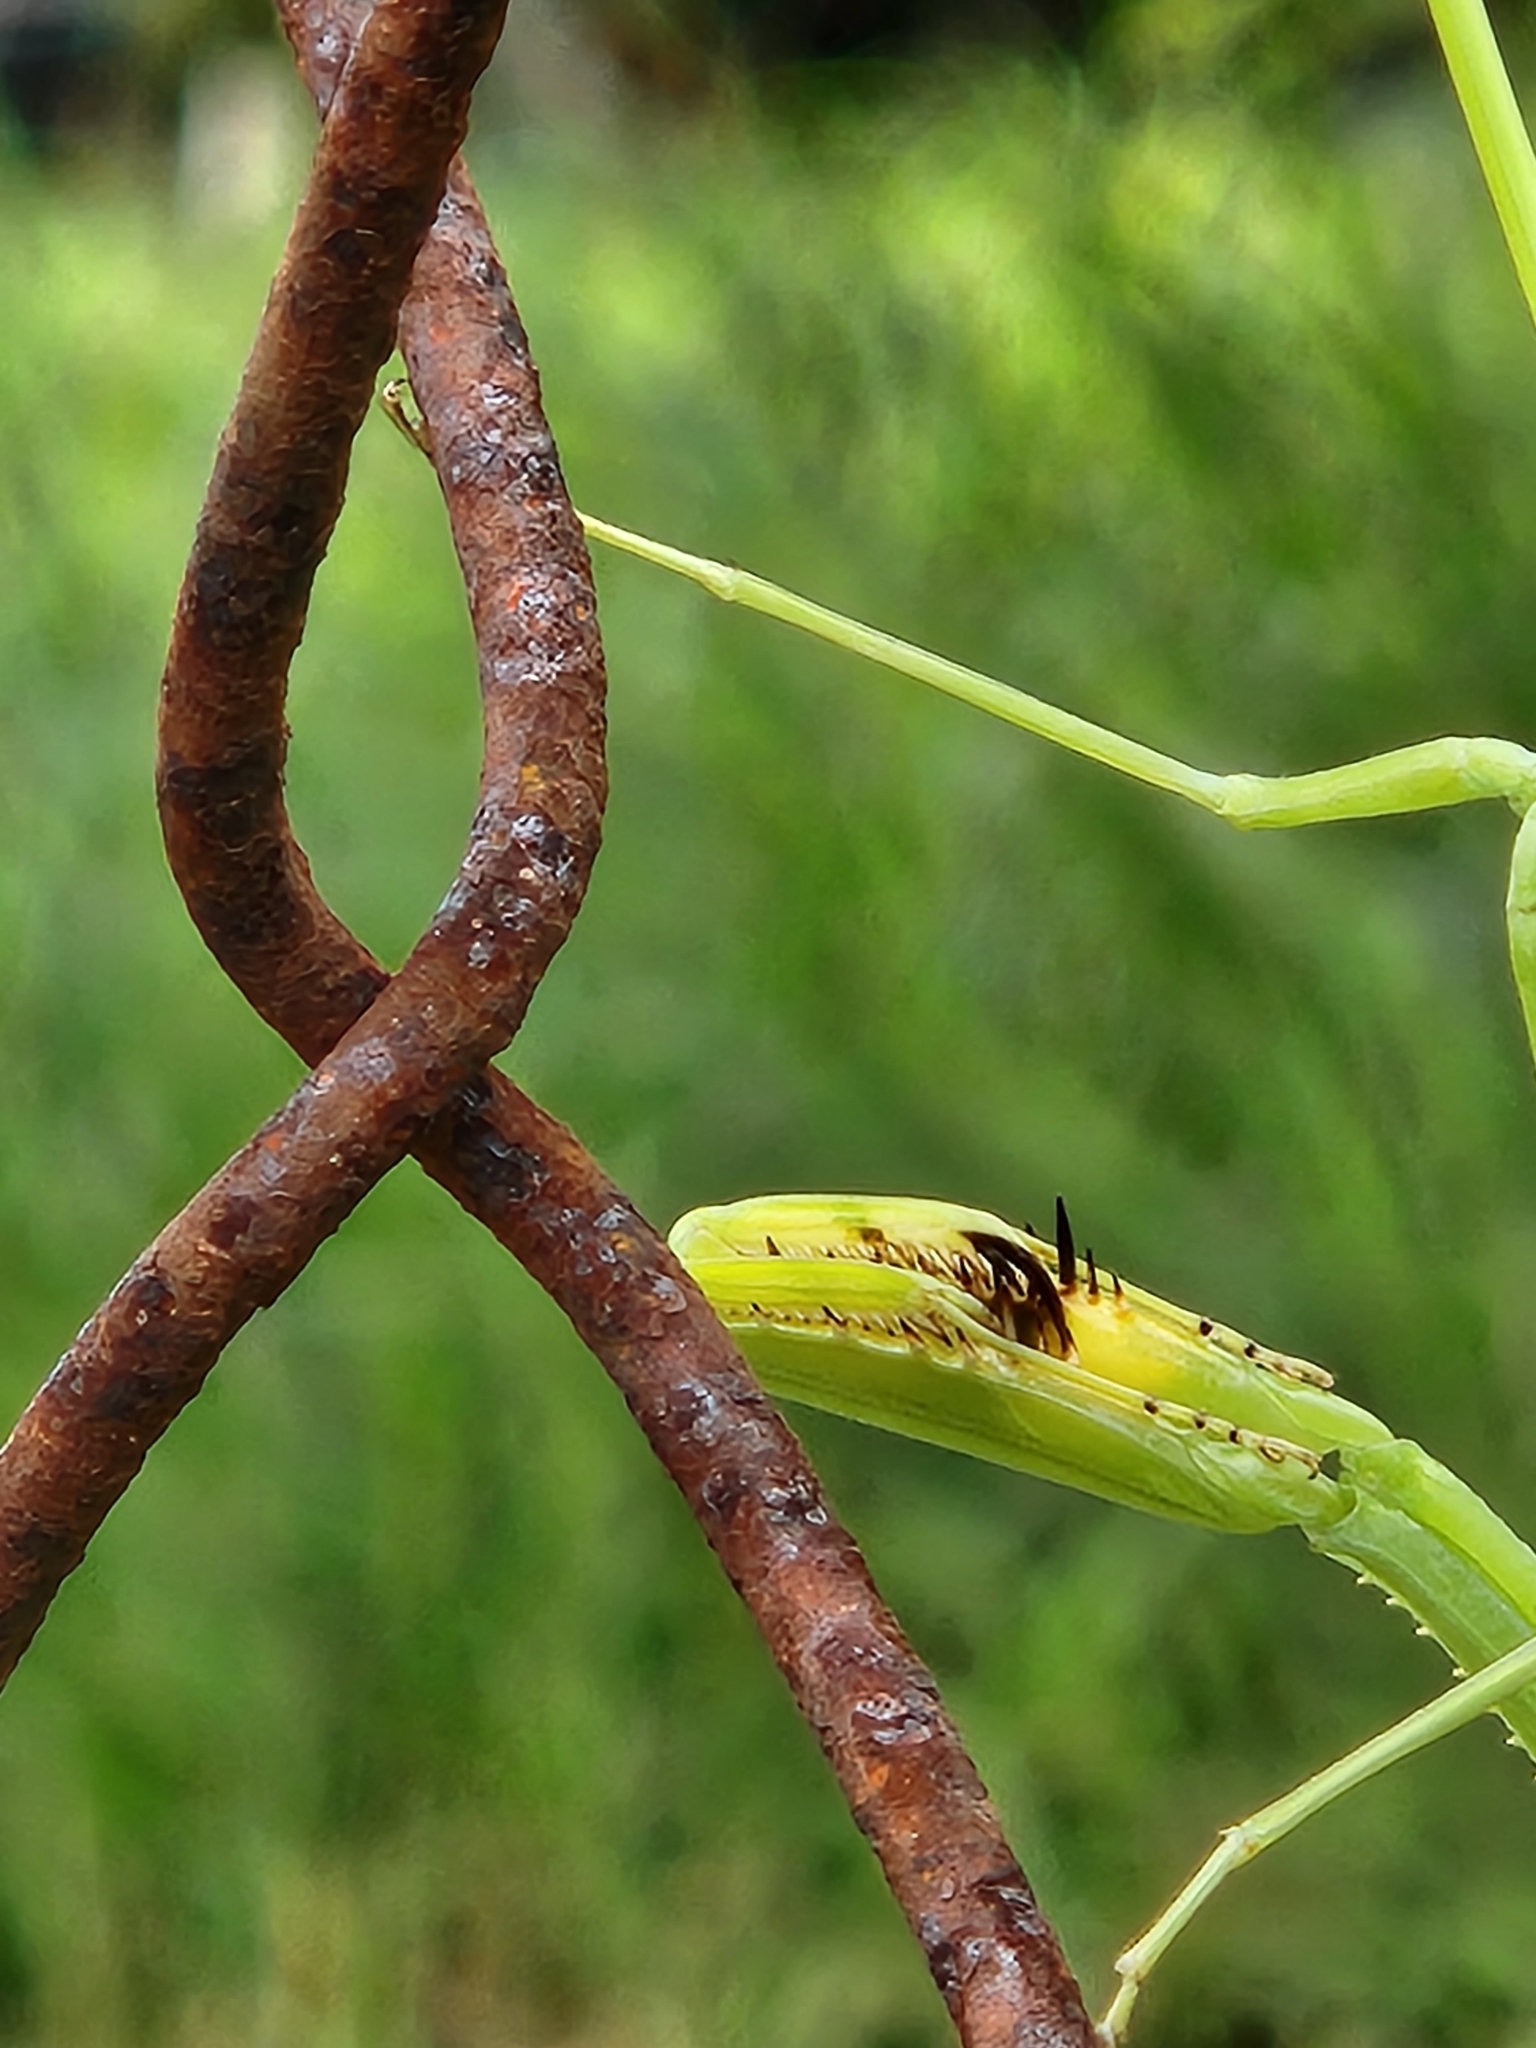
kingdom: Animalia
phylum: Arthropoda
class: Insecta
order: Mantodea
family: Mantidae
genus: Stagmatoptera
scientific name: Stagmatoptera septentrionalis
